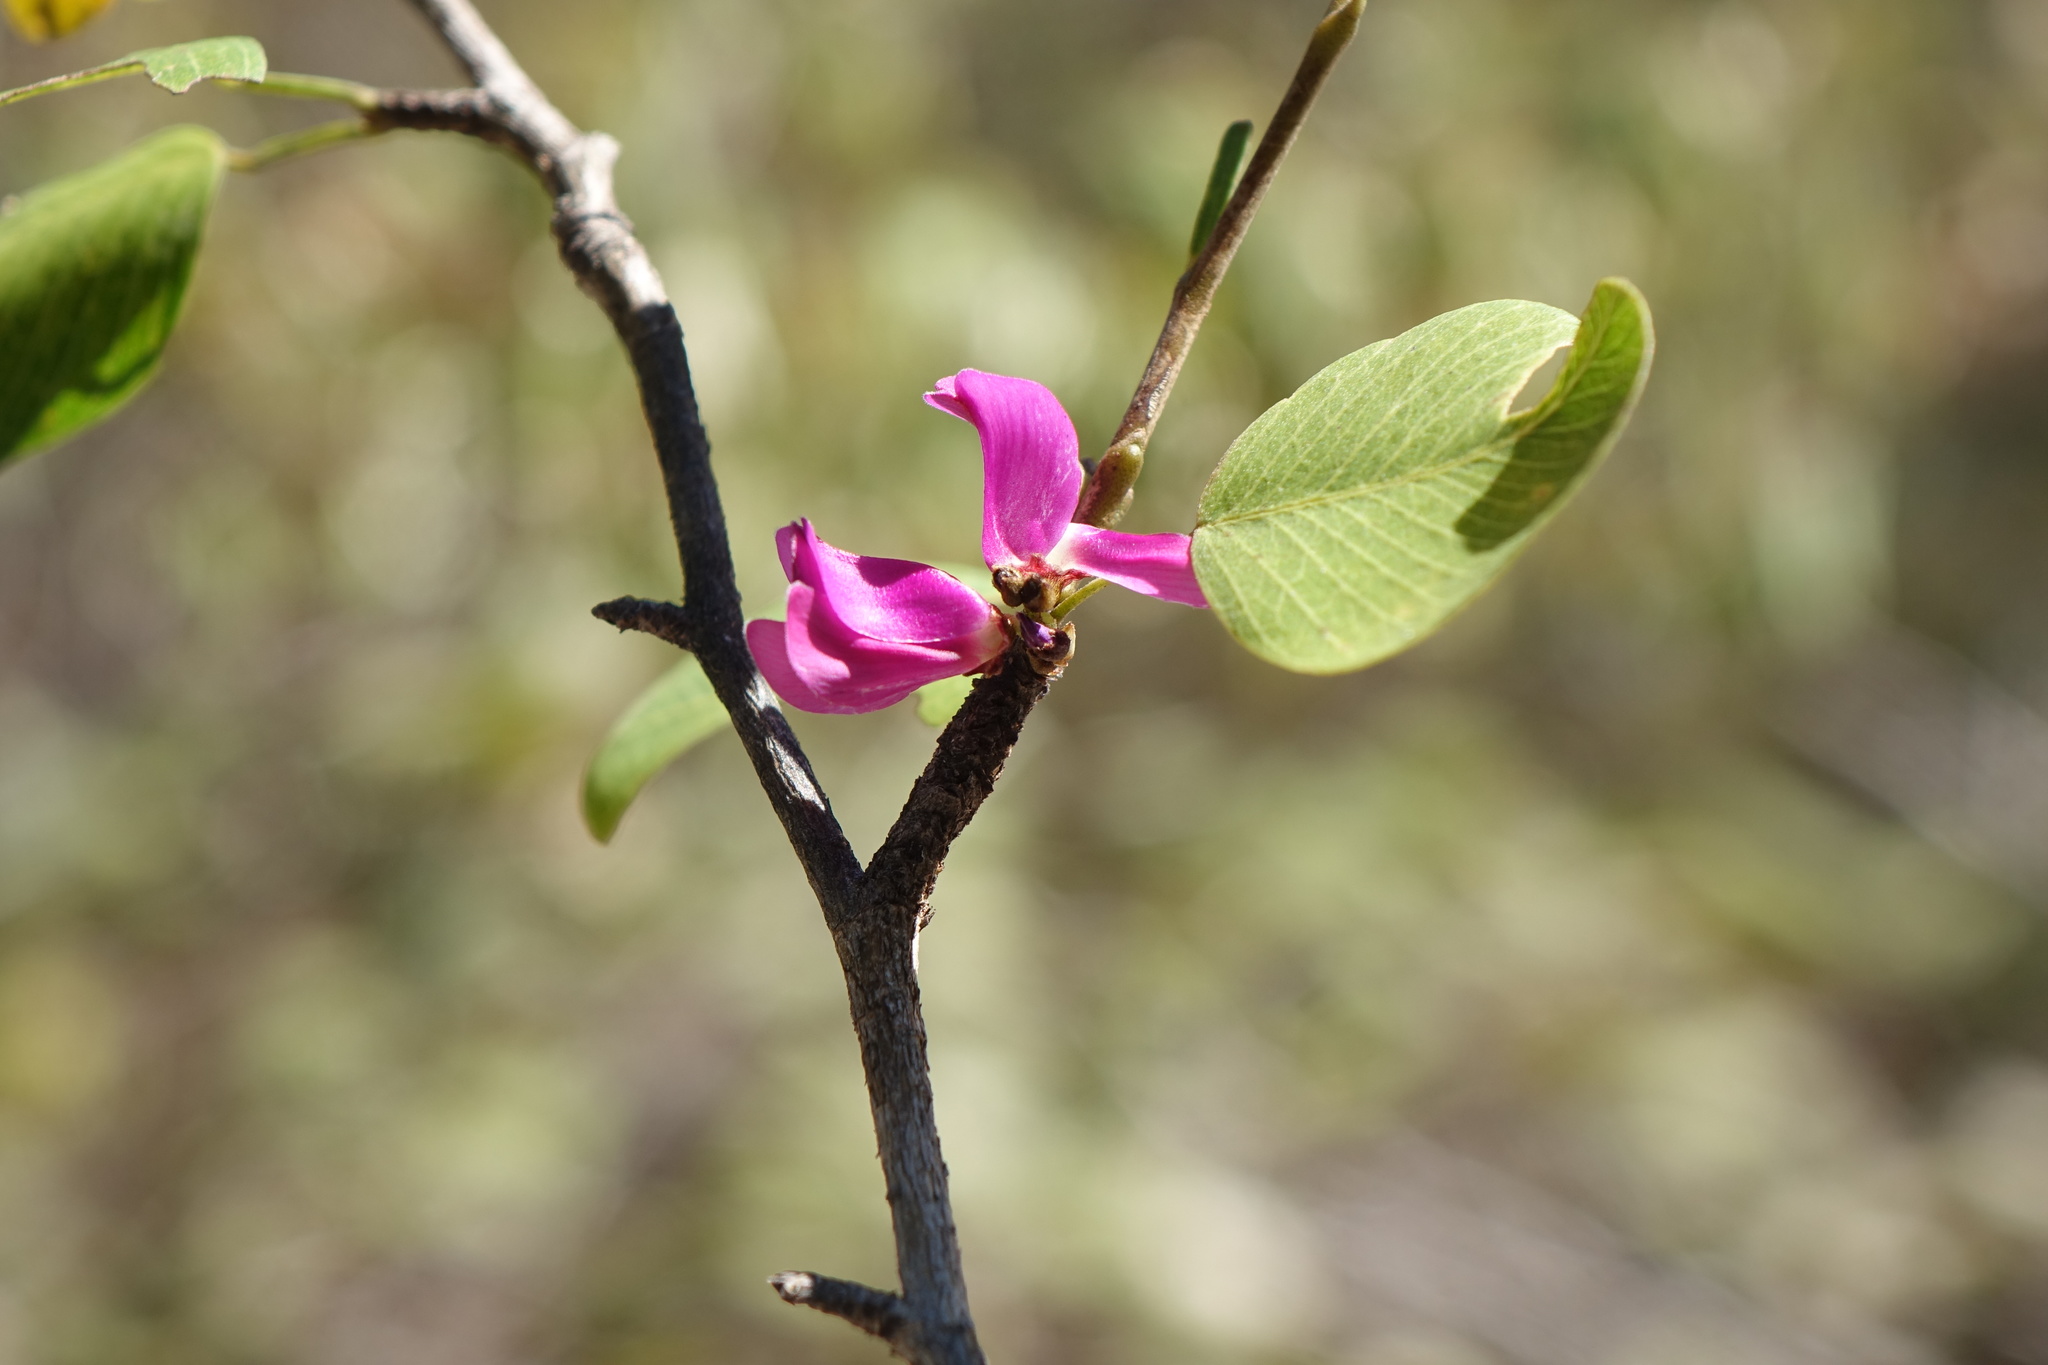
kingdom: Plantae
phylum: Tracheophyta
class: Magnoliopsida
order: Fabales
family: Fabaceae
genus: Indigofera
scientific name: Indigofera dionaeifolia
